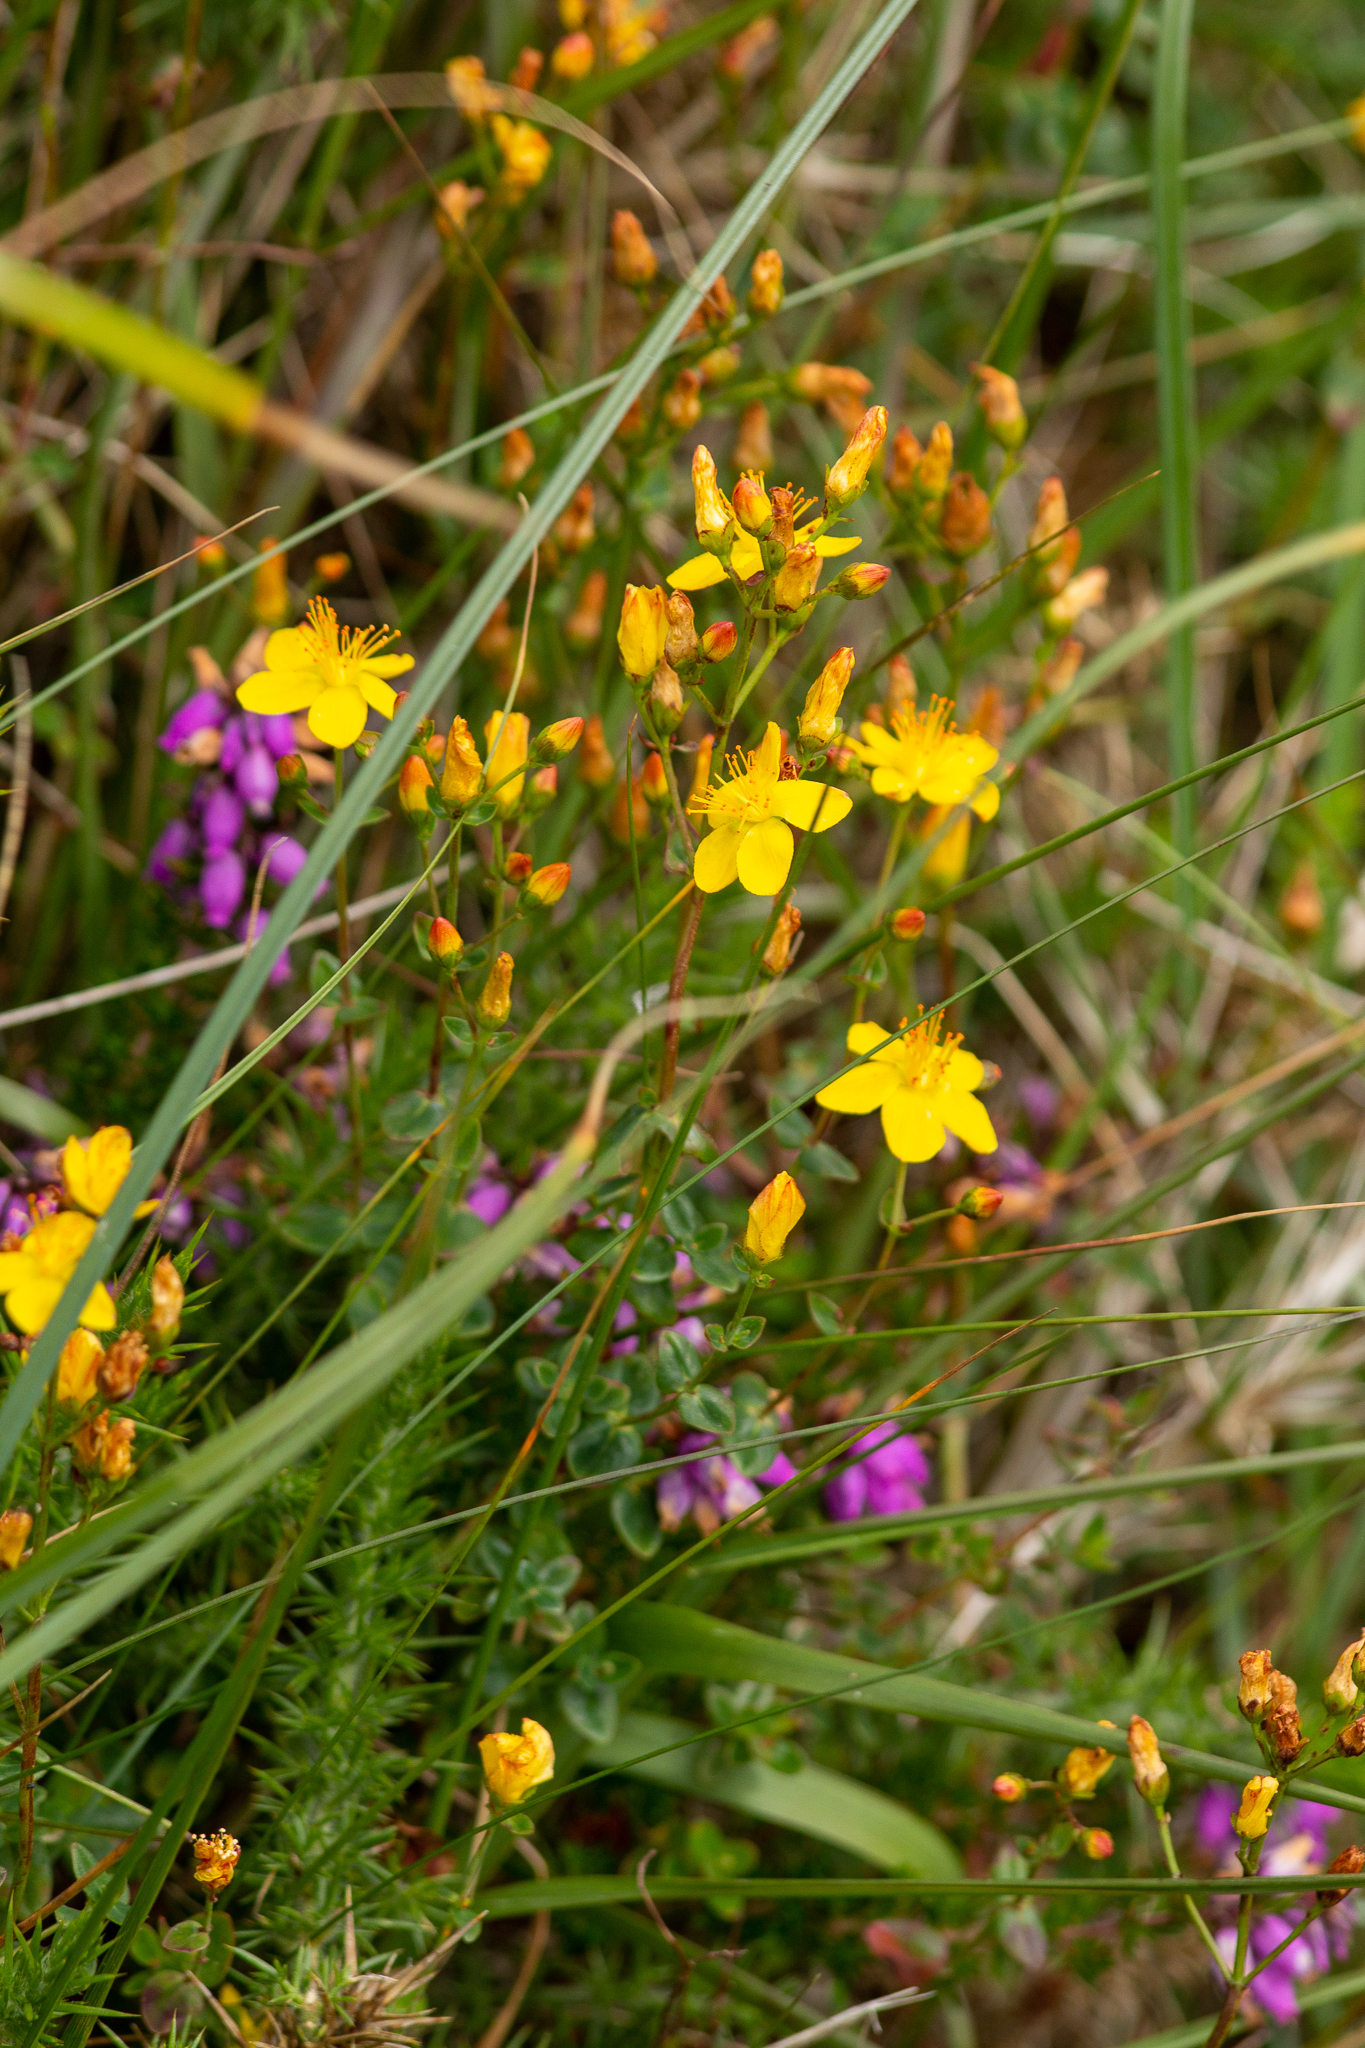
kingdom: Plantae
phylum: Tracheophyta
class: Magnoliopsida
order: Malpighiales
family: Hypericaceae
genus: Hypericum
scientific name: Hypericum pulchrum
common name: Slender st. john's-wort
